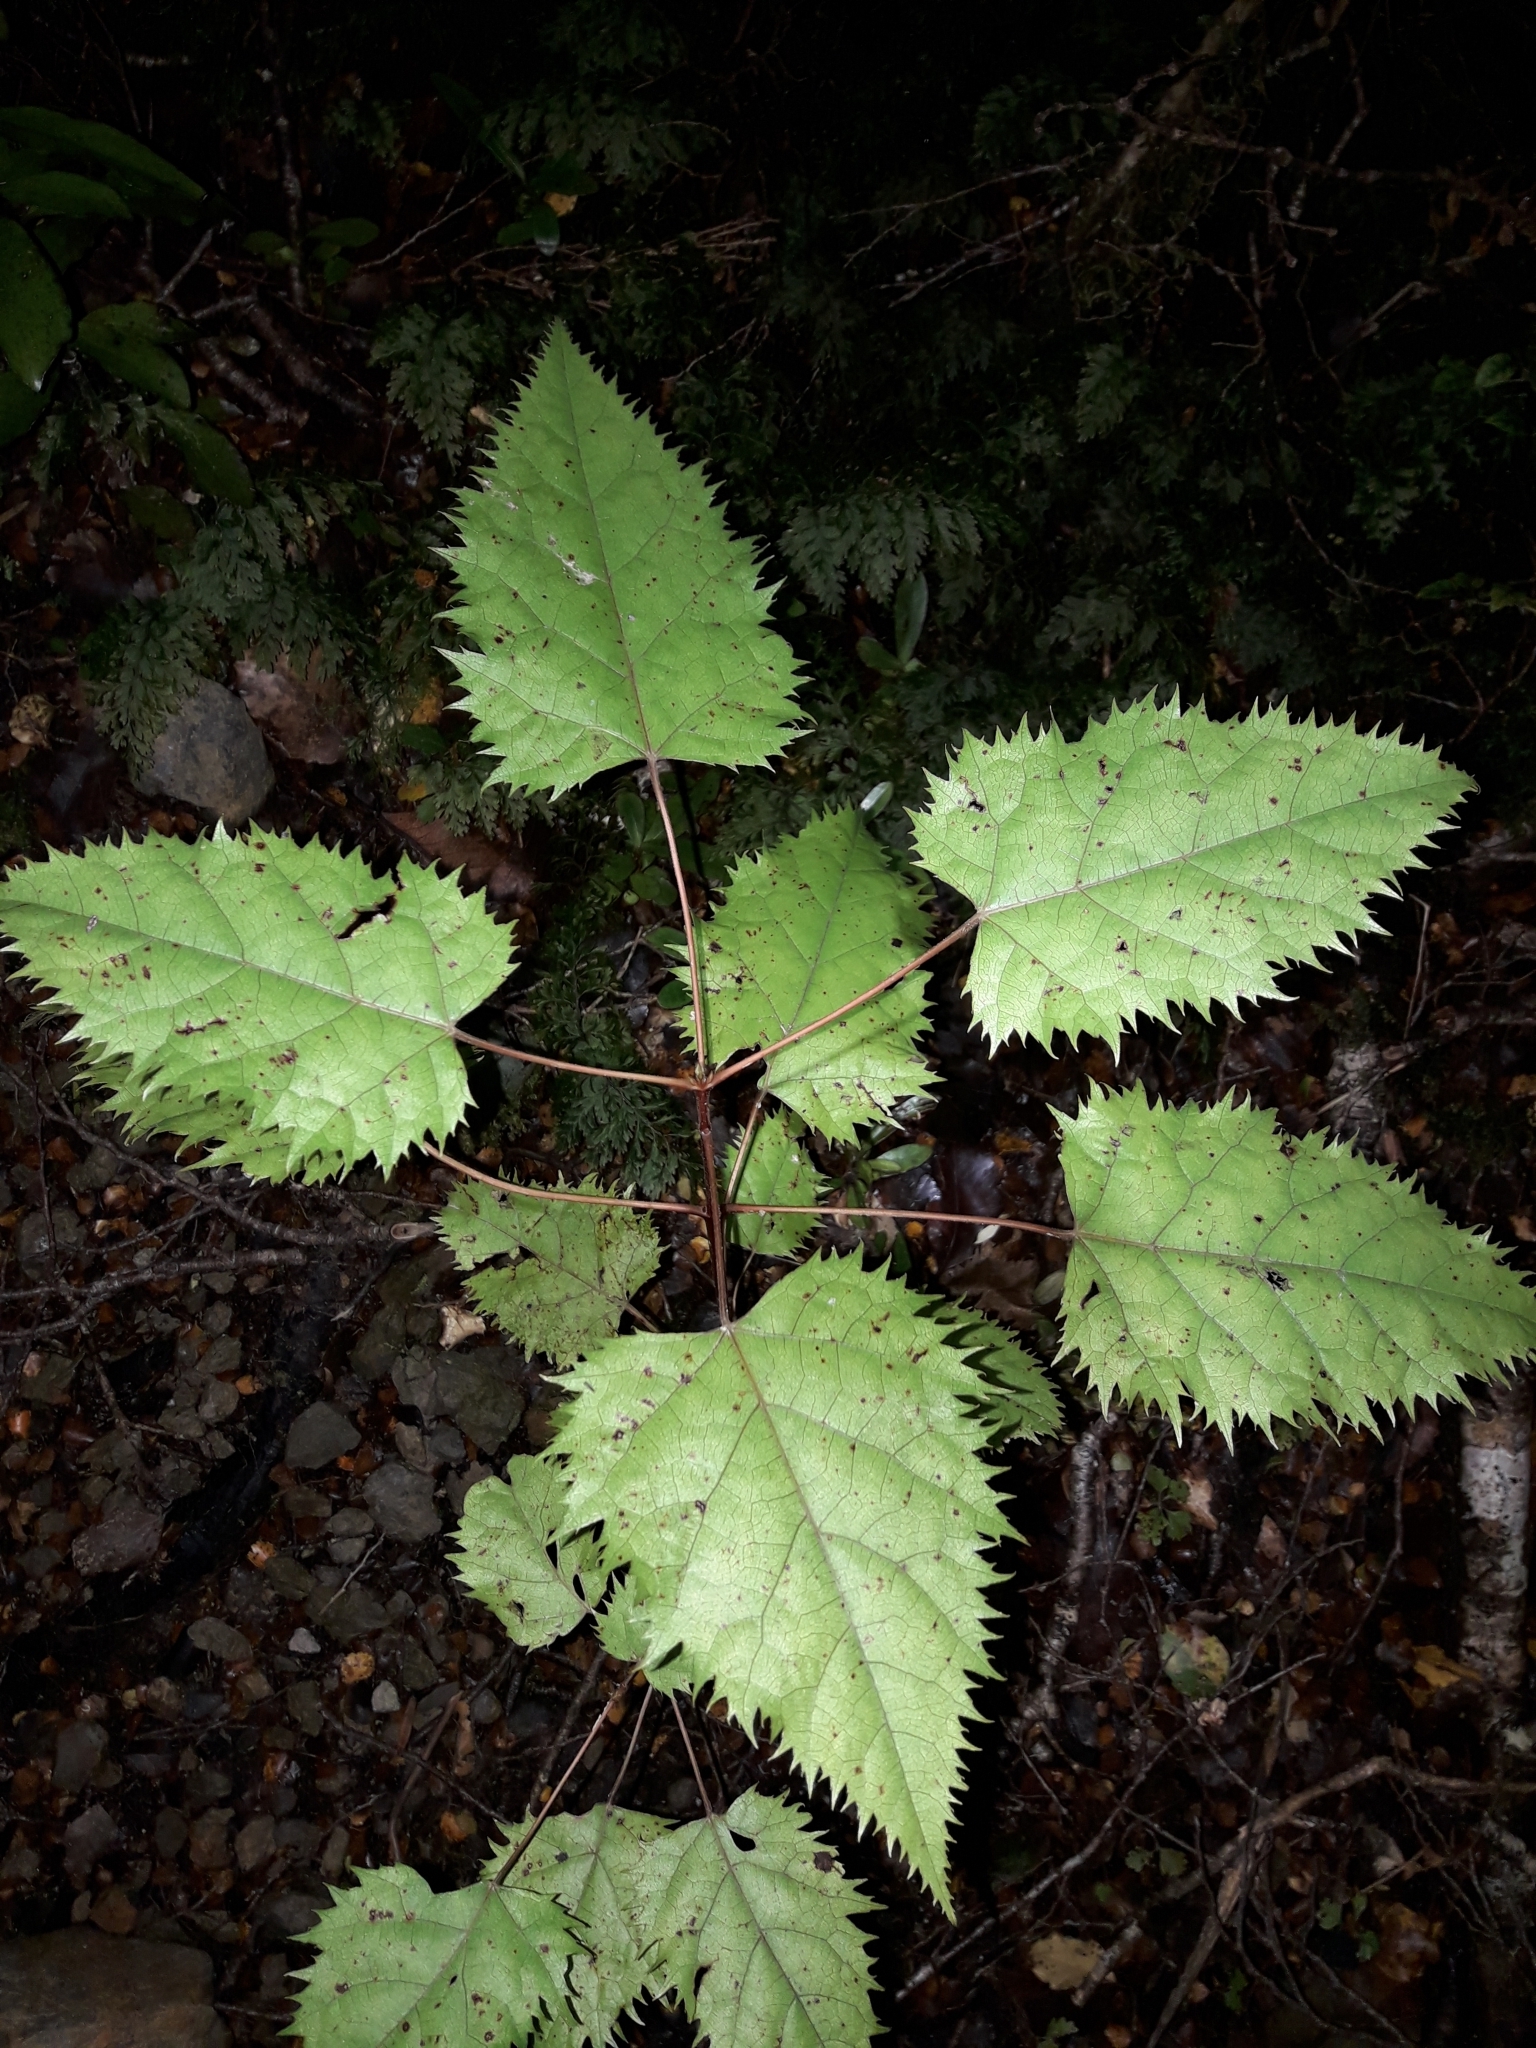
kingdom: Plantae
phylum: Tracheophyta
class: Magnoliopsida
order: Oxalidales
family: Elaeocarpaceae
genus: Aristotelia
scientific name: Aristotelia serrata
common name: New zealand wineberry
